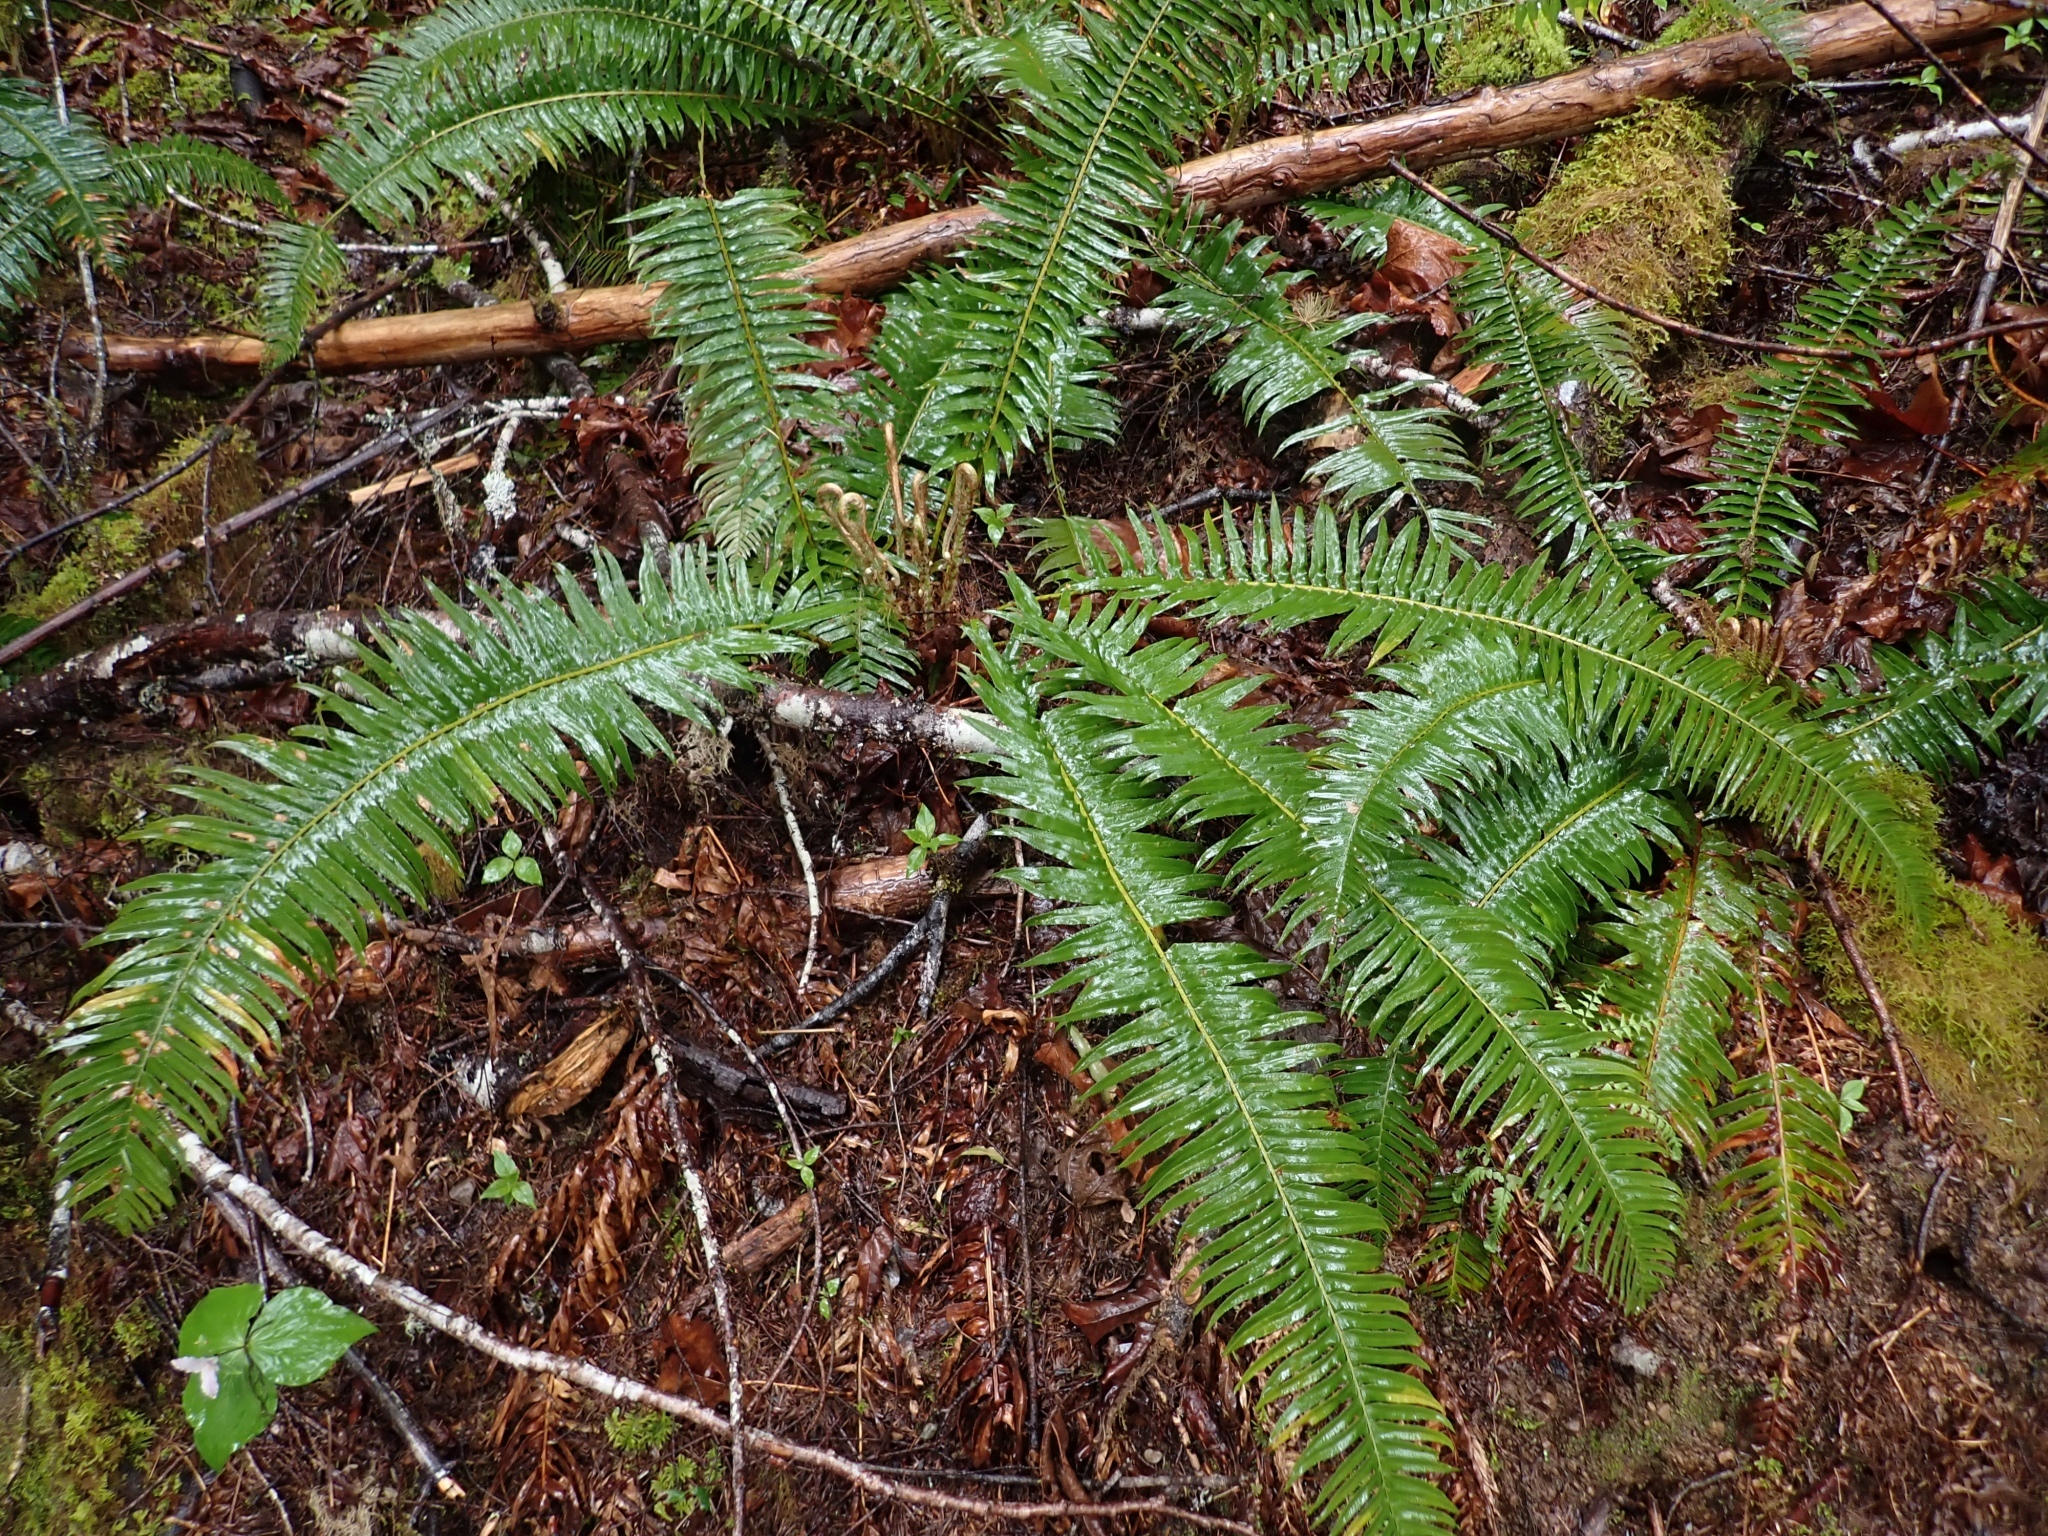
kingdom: Plantae
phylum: Tracheophyta
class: Polypodiopsida
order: Polypodiales
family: Dryopteridaceae
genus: Polystichum
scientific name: Polystichum munitum
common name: Western sword-fern
